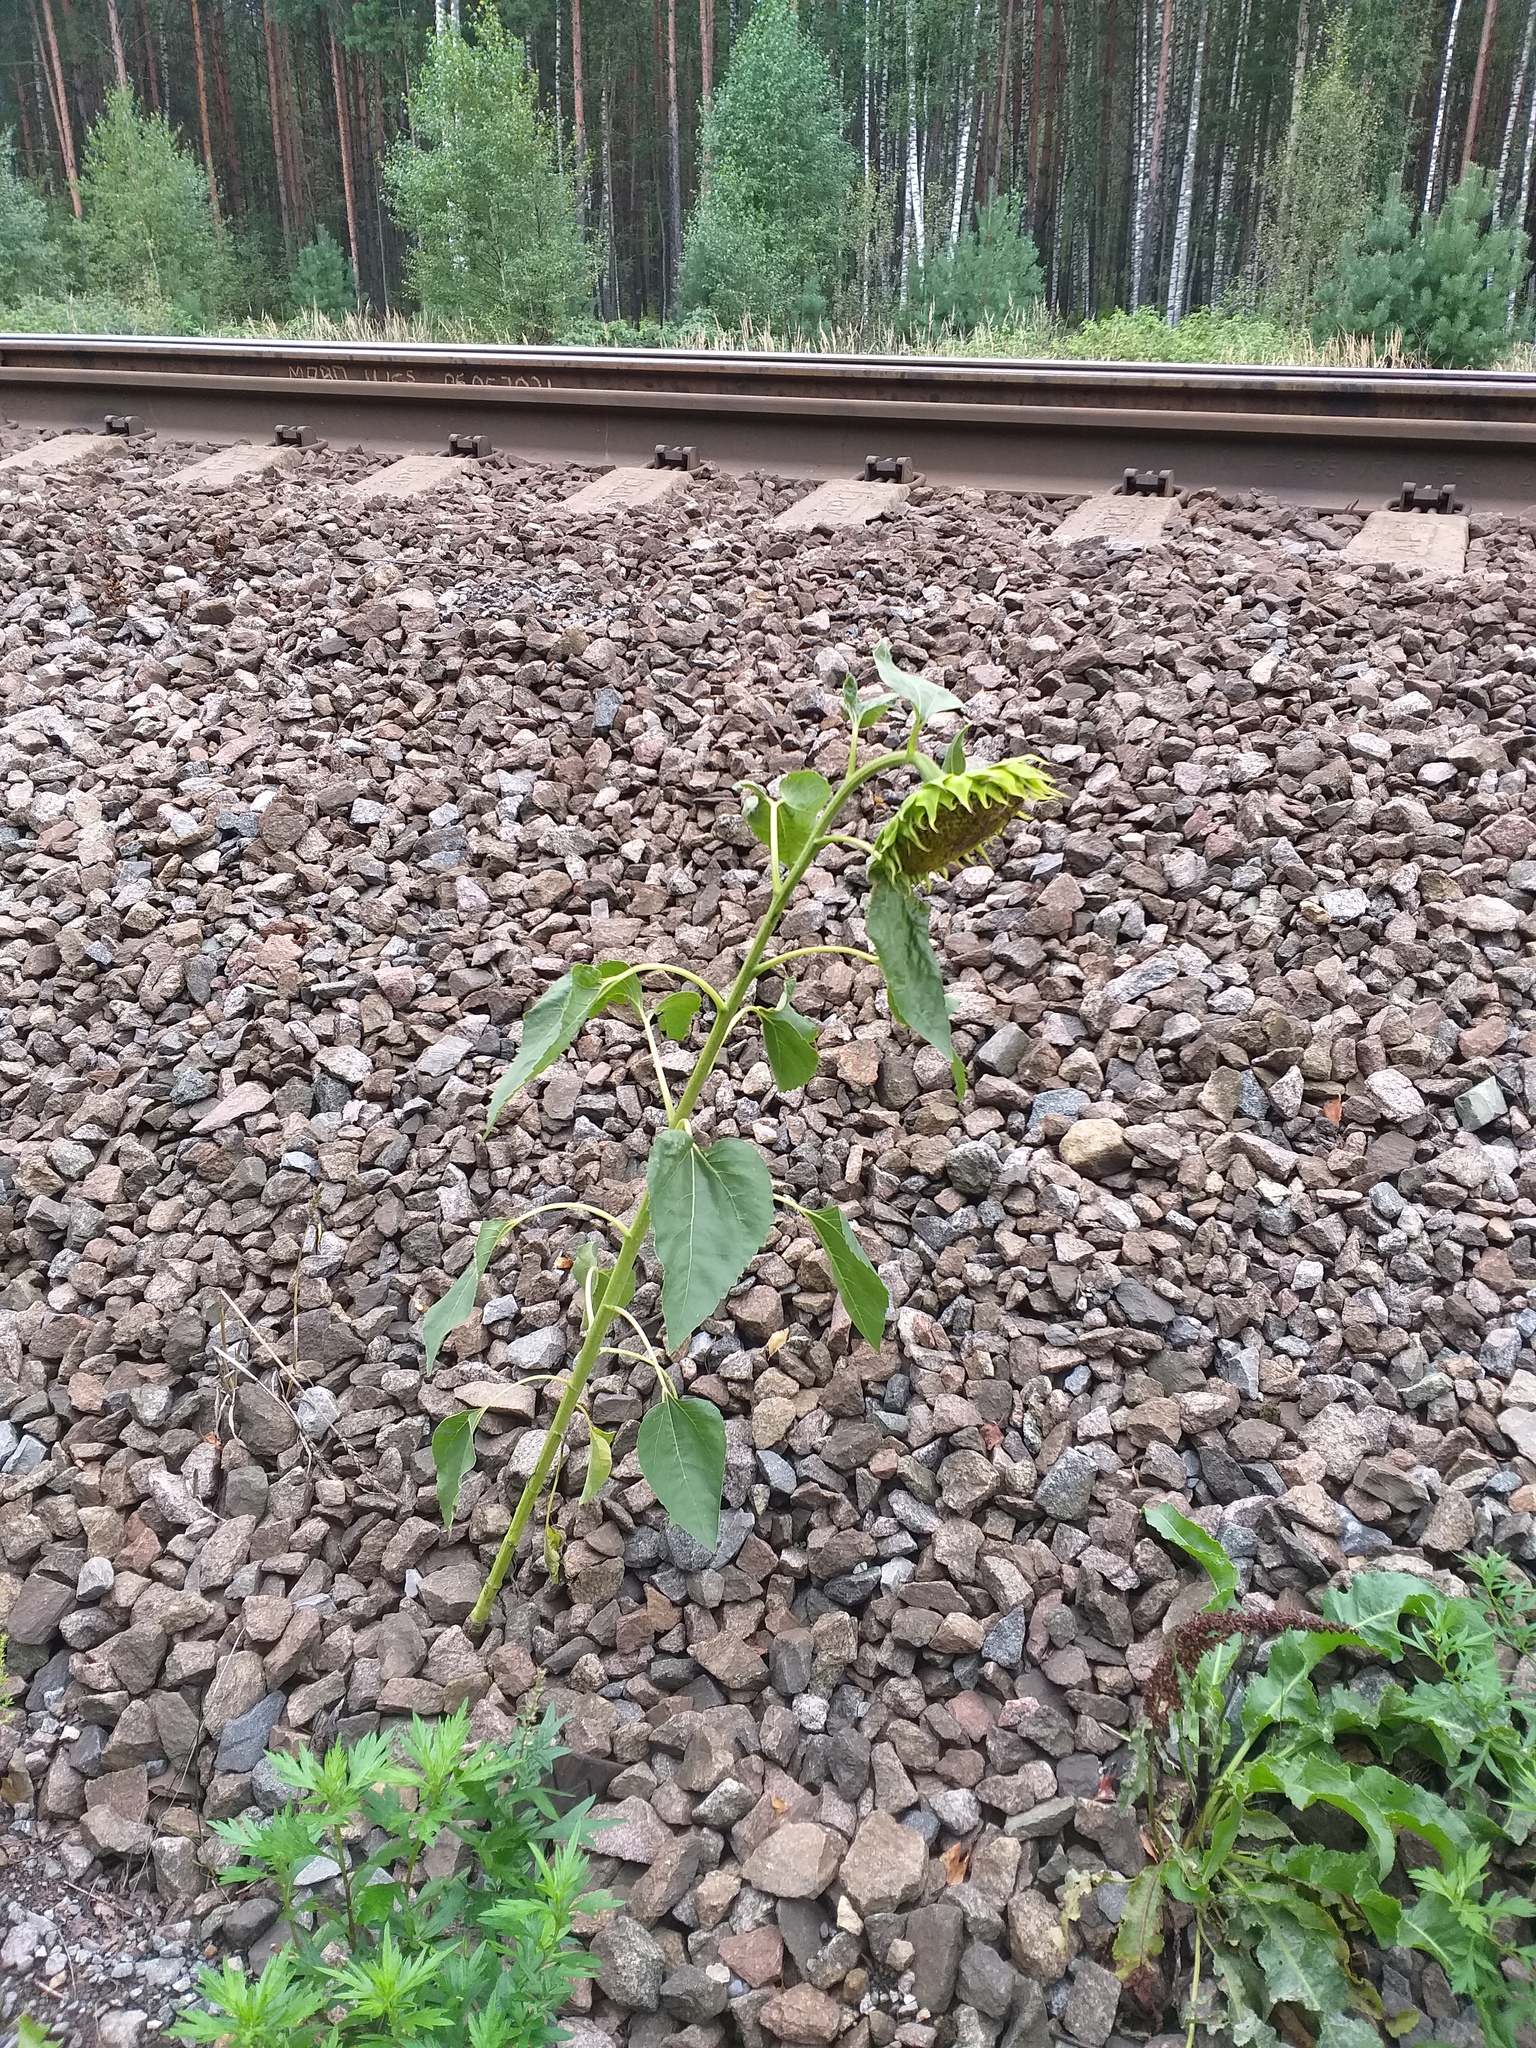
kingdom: Plantae
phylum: Tracheophyta
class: Magnoliopsida
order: Asterales
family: Asteraceae
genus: Helianthus
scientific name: Helianthus annuus
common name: Sunflower
